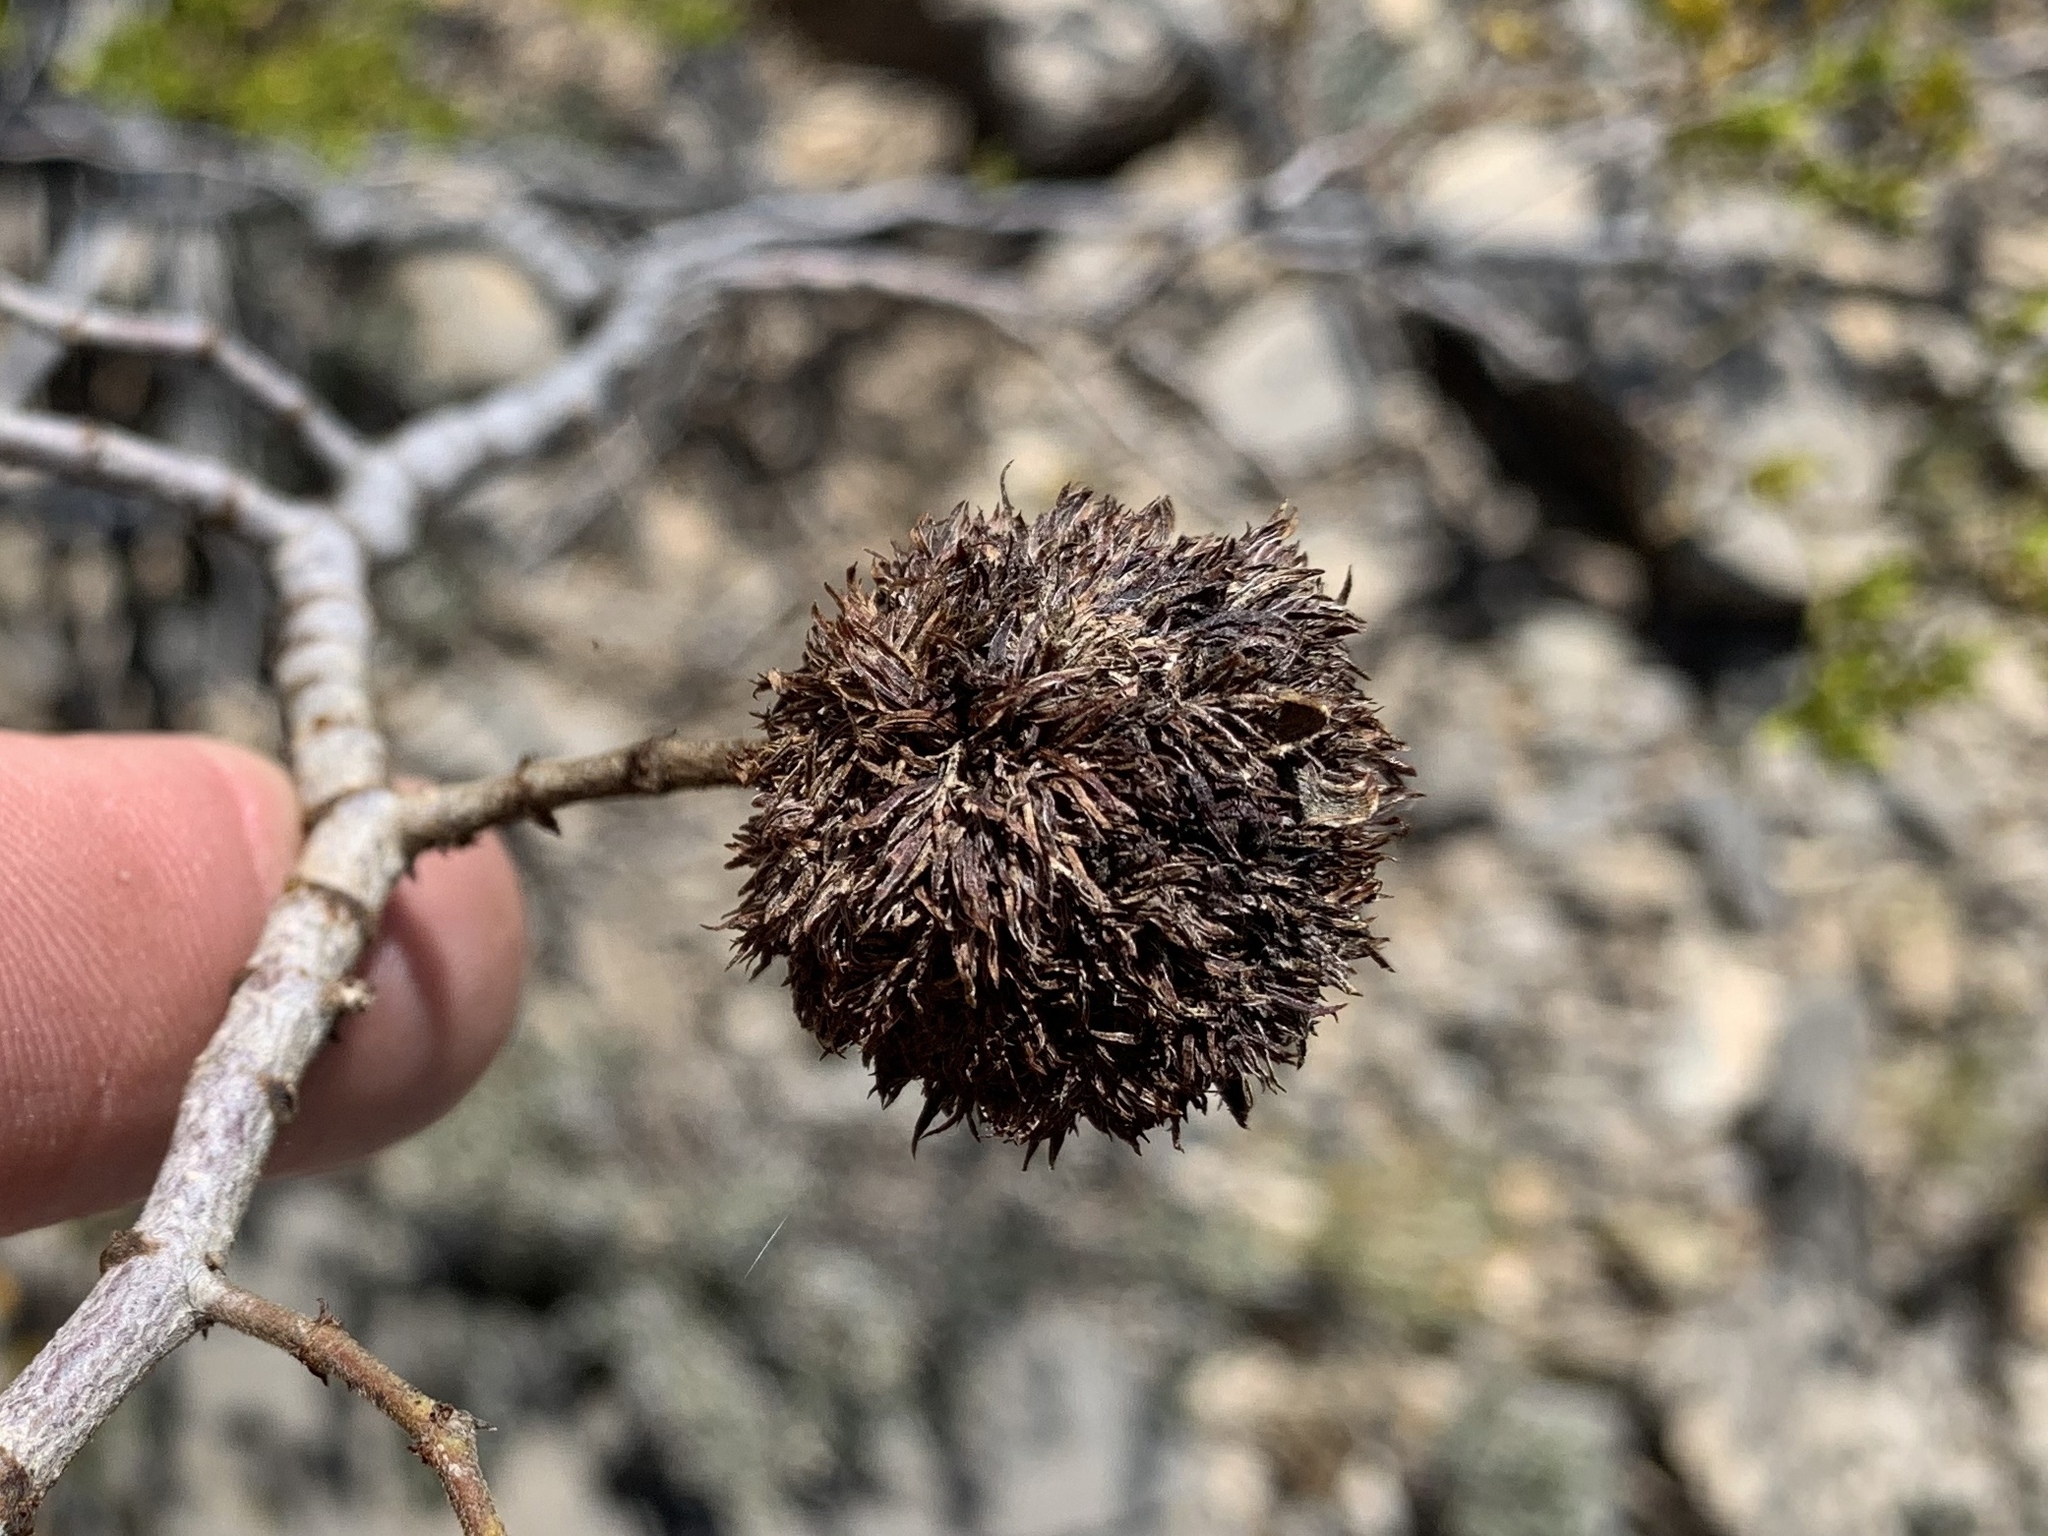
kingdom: Animalia
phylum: Arthropoda
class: Insecta
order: Diptera
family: Cecidomyiidae
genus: Asphondylia
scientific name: Asphondylia auripila
